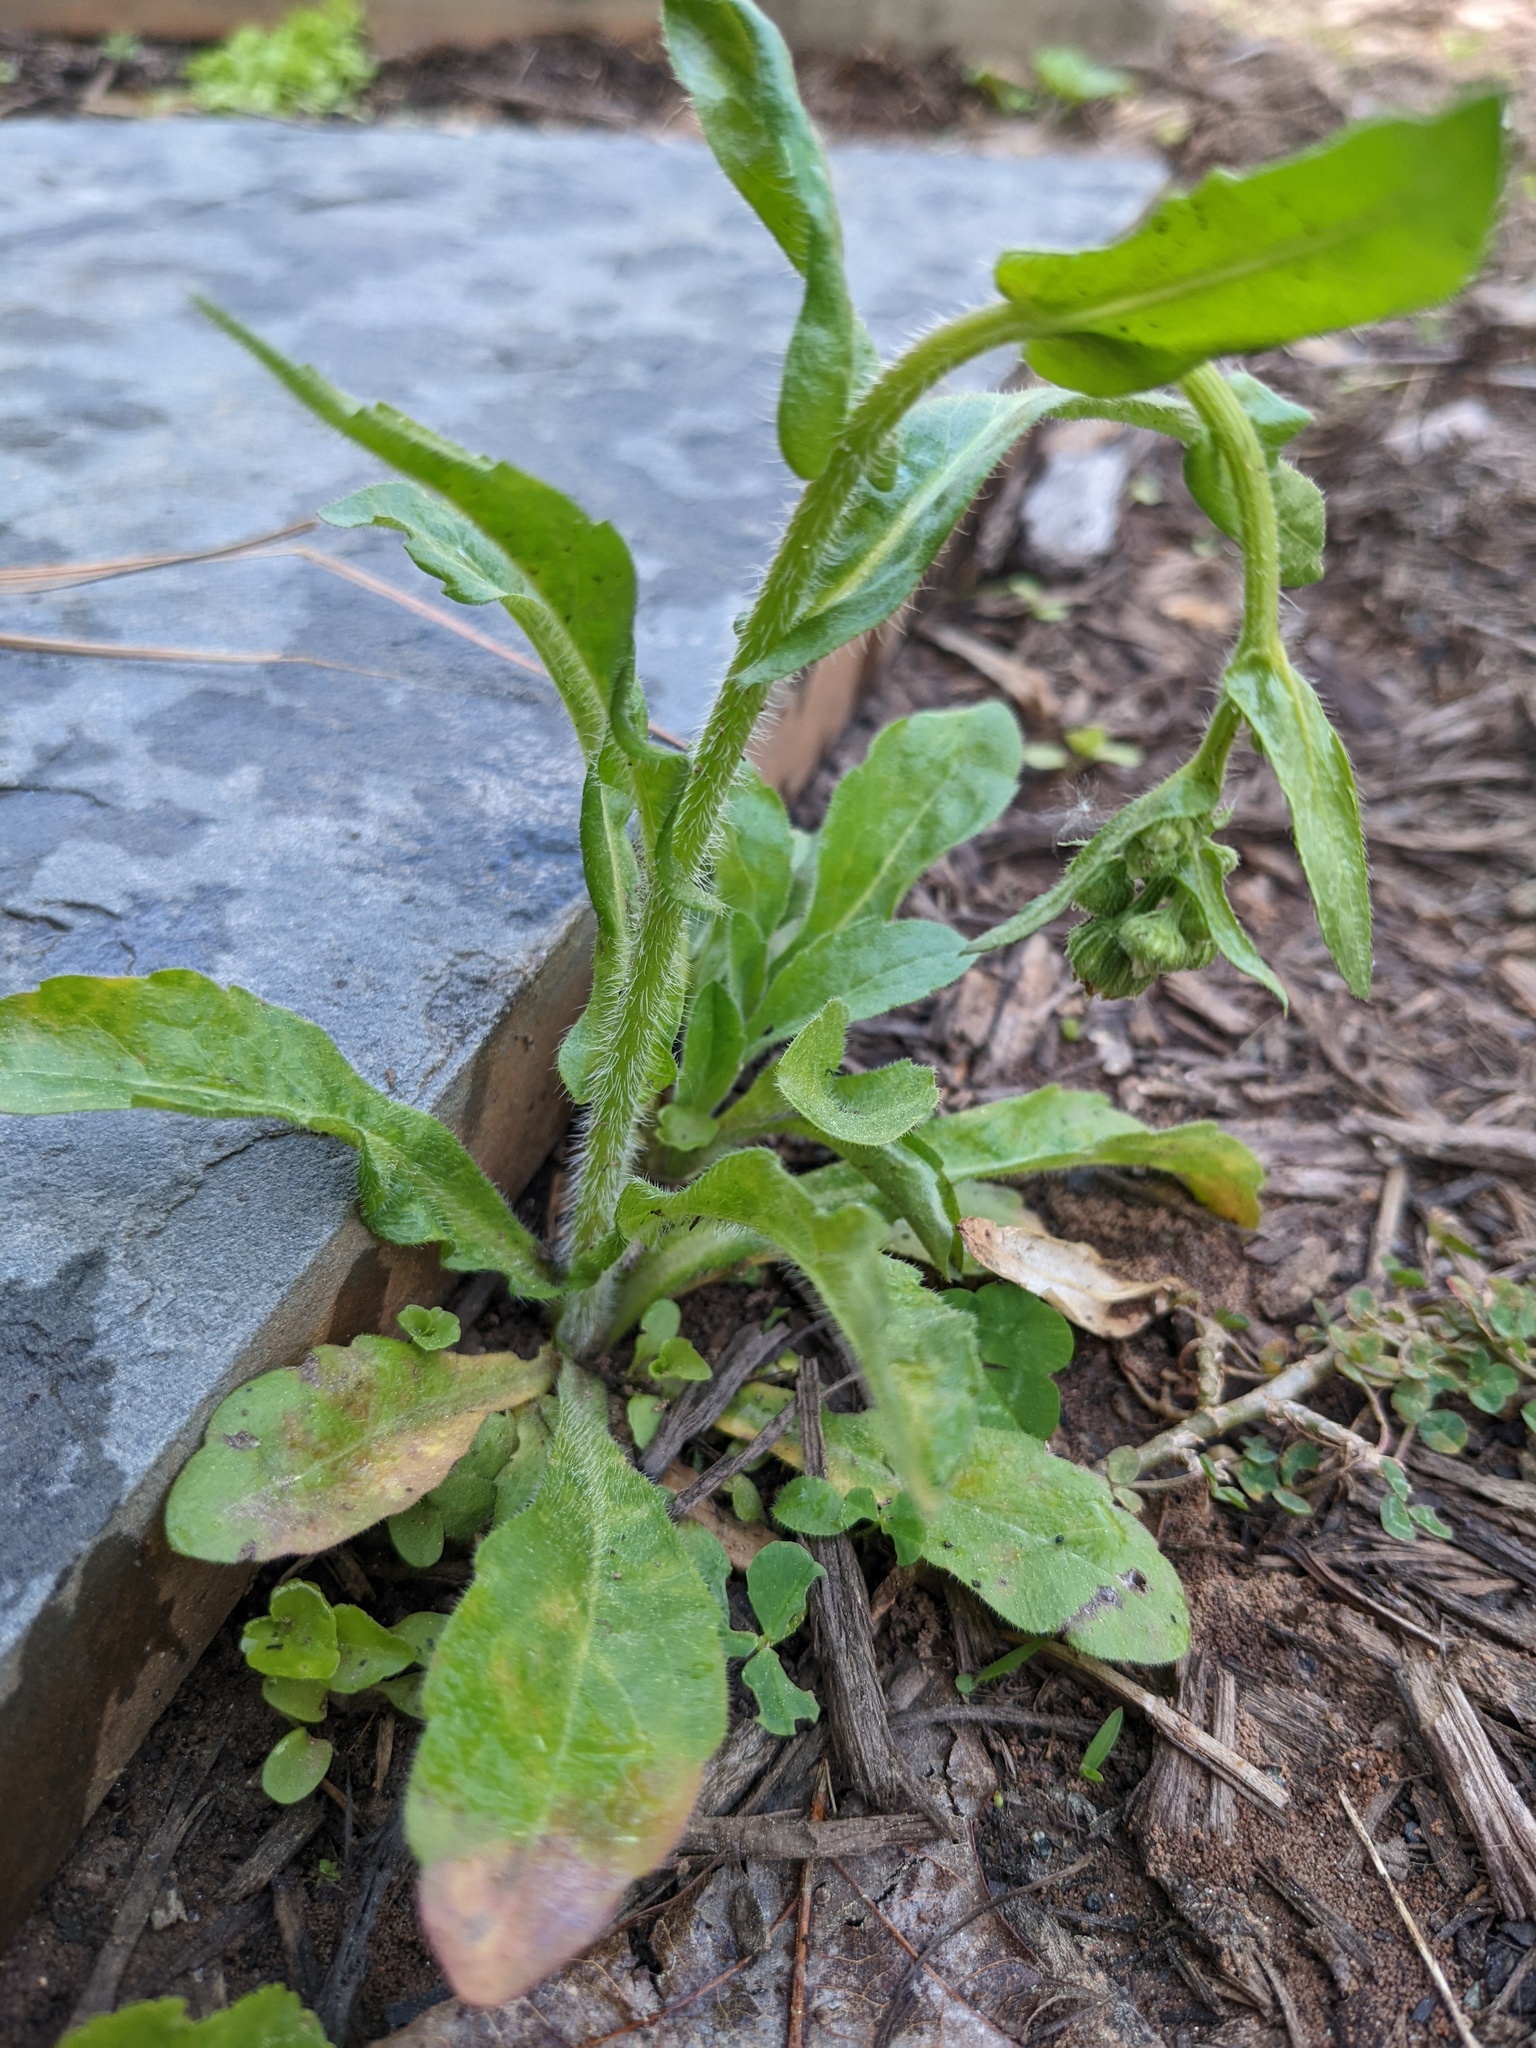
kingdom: Plantae
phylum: Tracheophyta
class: Magnoliopsida
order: Asterales
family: Asteraceae
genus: Erigeron
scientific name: Erigeron philadelphicus
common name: Robin's-plantain
